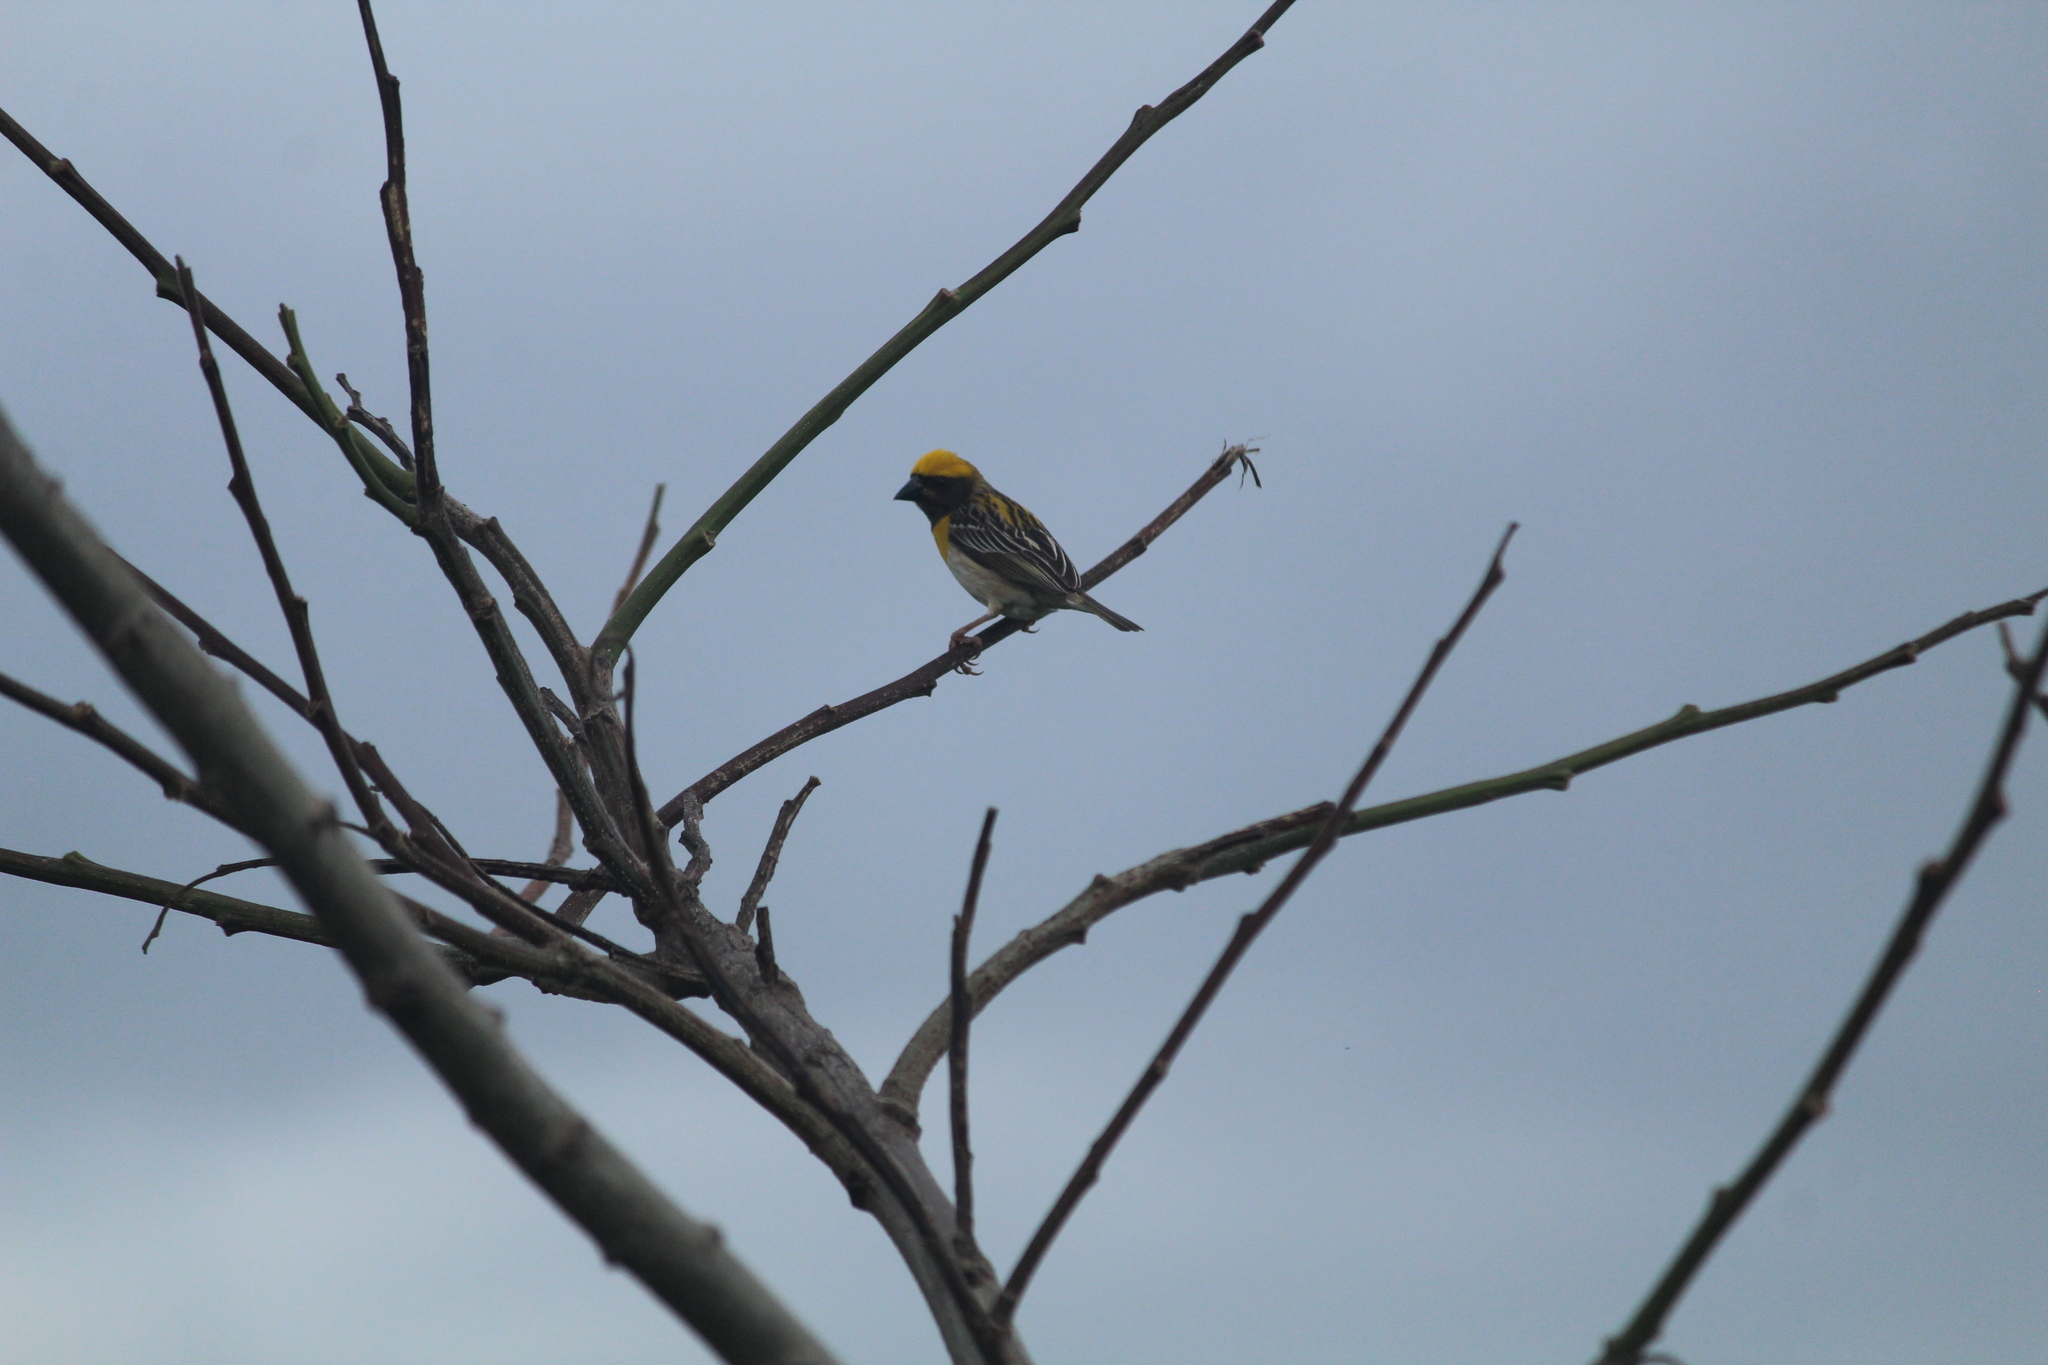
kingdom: Animalia
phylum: Chordata
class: Aves
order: Passeriformes
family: Ploceidae
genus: Ploceus
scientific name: Ploceus philippinus
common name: Baya weaver
